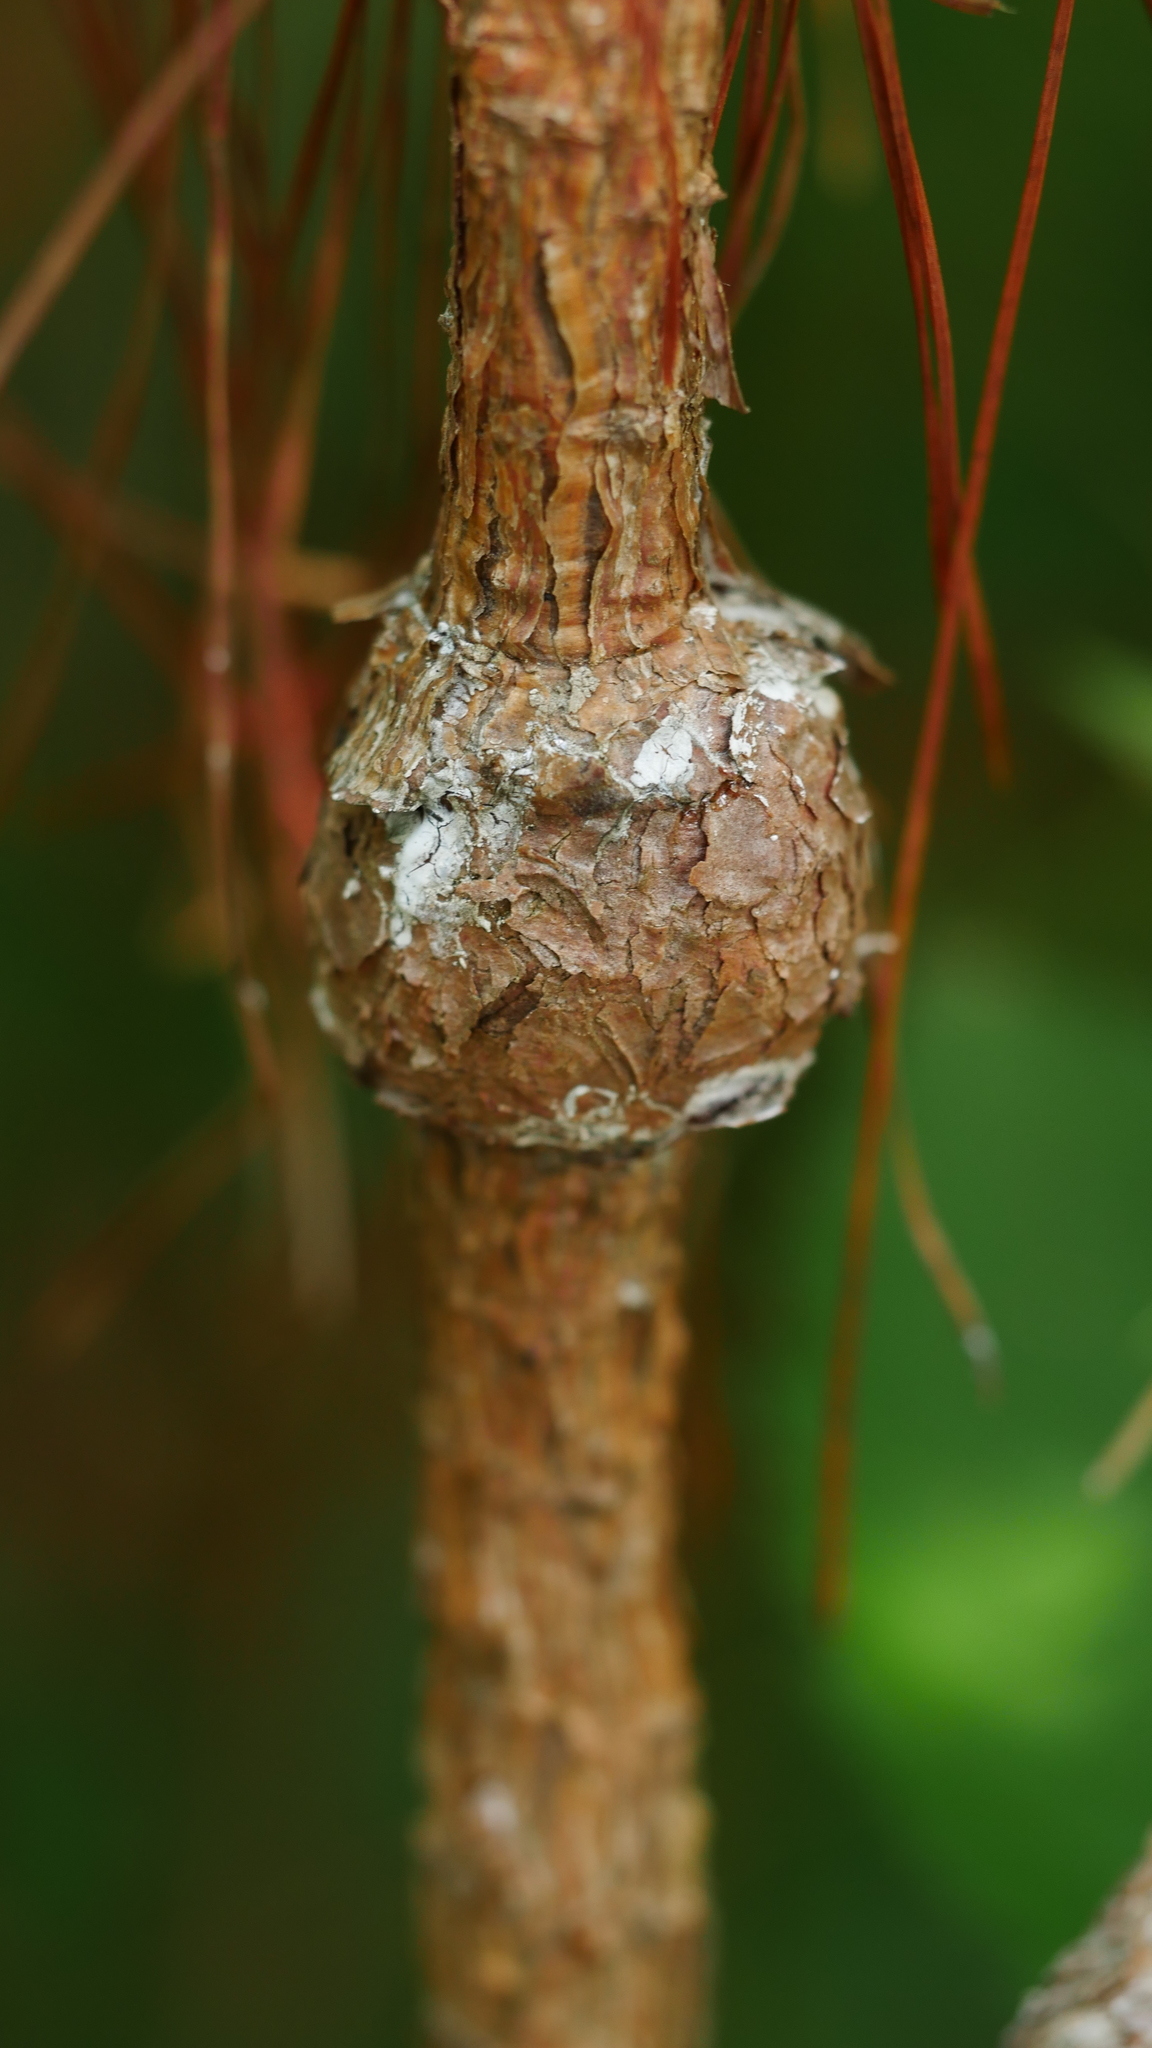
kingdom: Fungi
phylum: Basidiomycota
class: Pucciniomycetes
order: Pucciniales
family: Cronartiaceae
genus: Cronartium
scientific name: Cronartium quercuum
